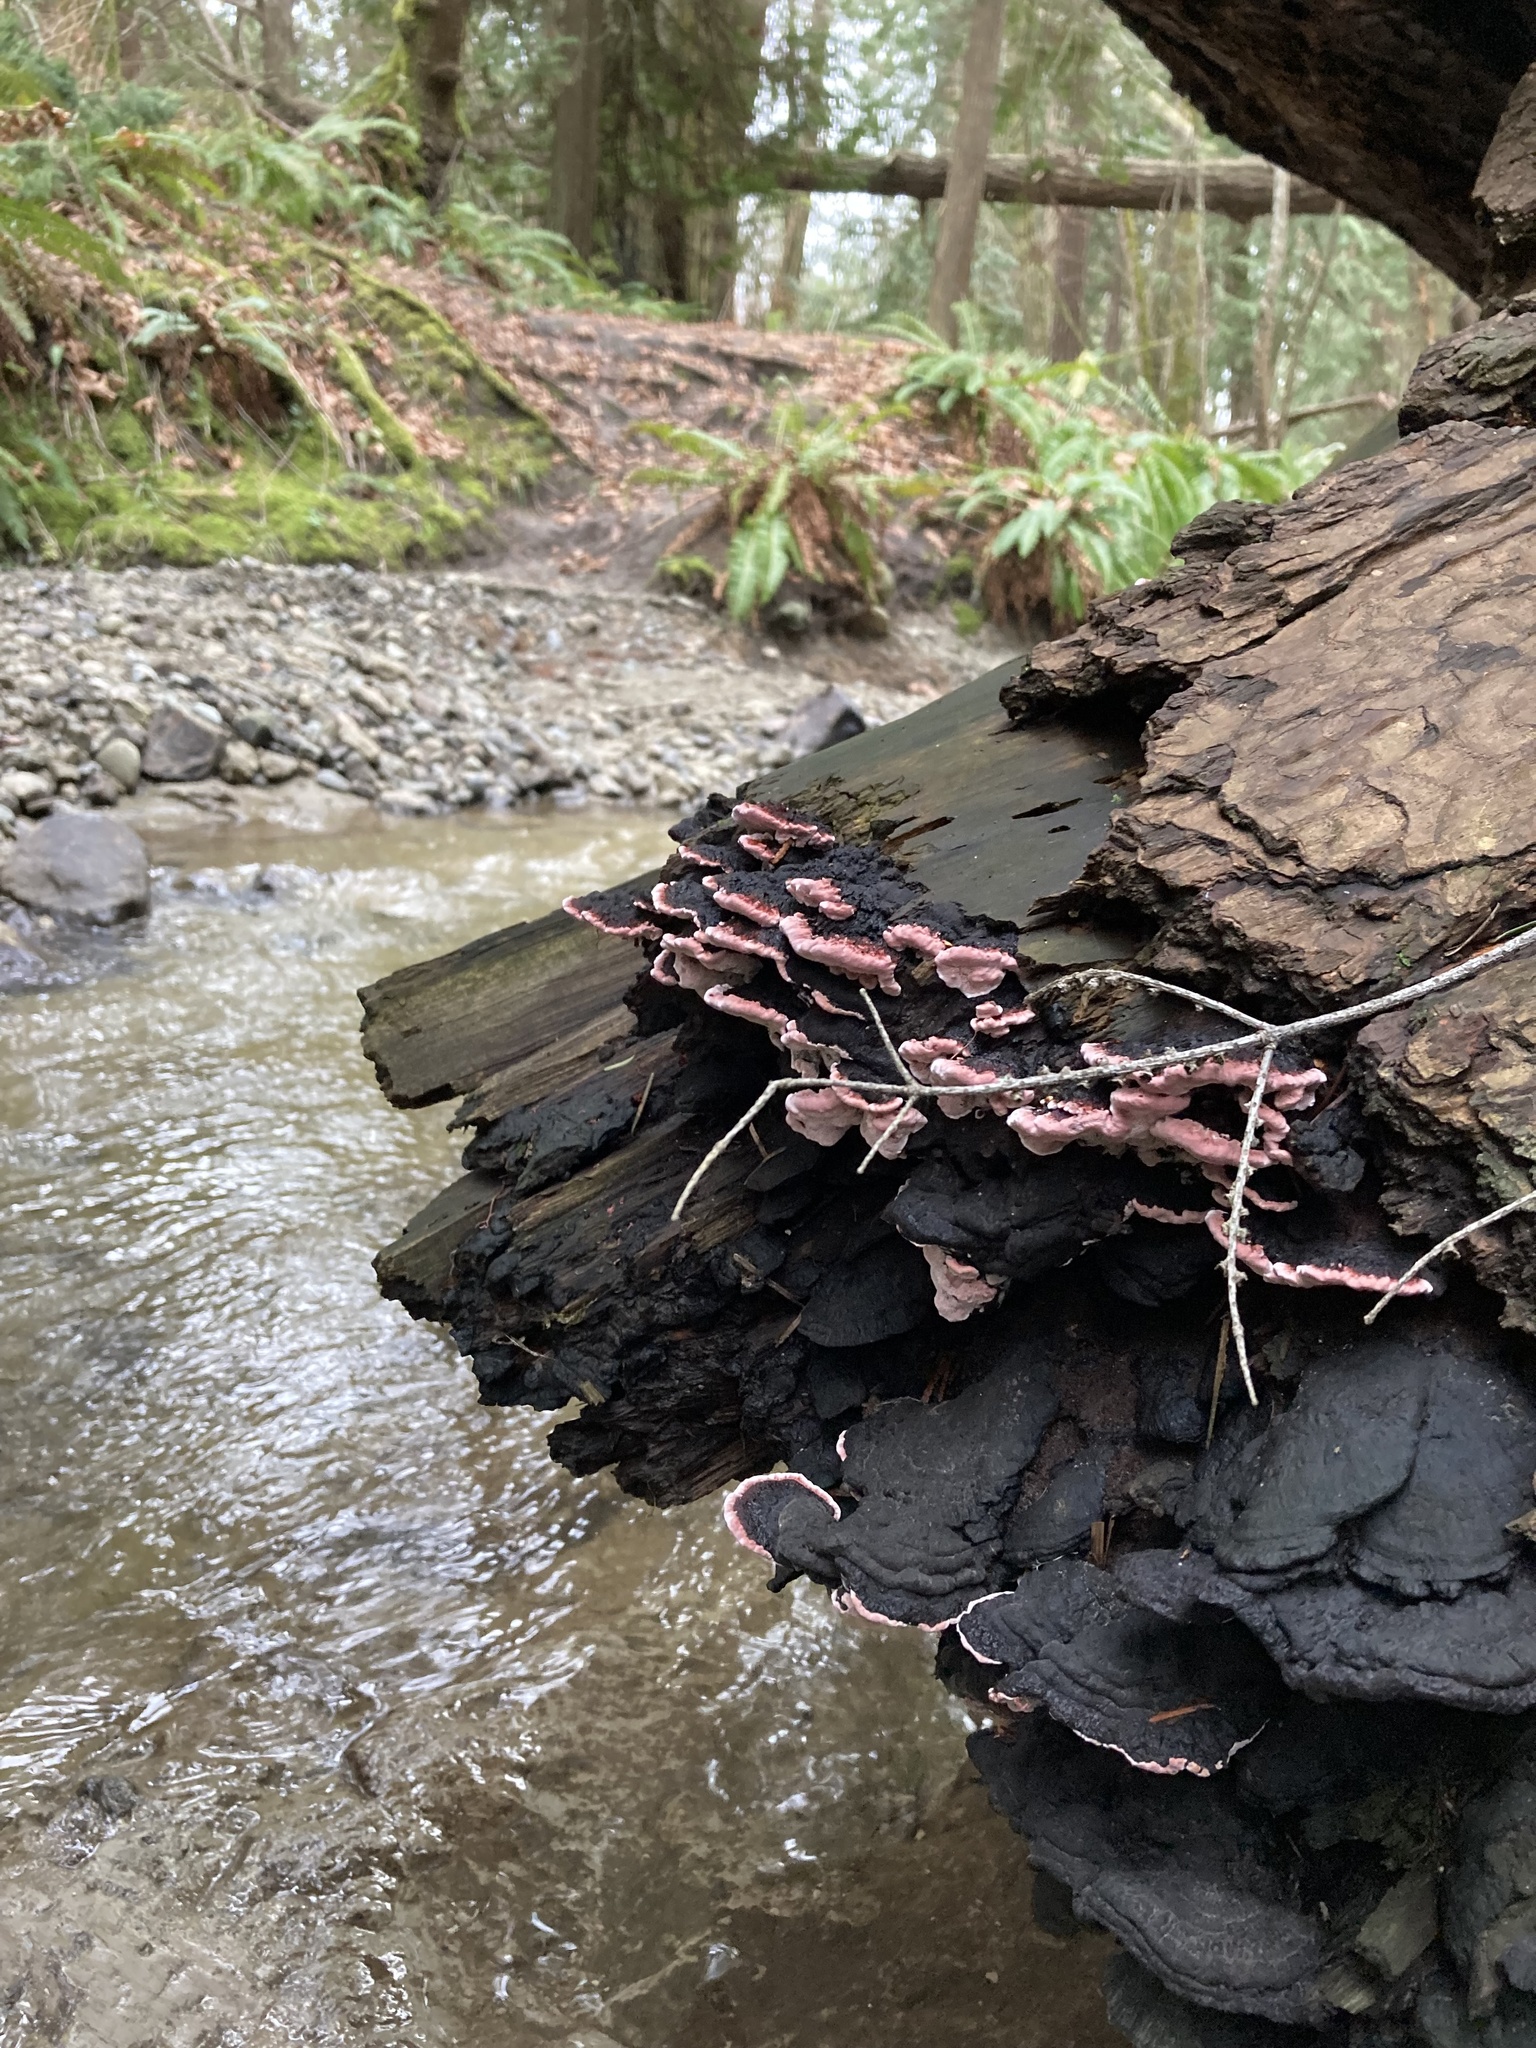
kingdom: Fungi
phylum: Basidiomycota
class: Agaricomycetes
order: Polyporales
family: Fomitopsidaceae
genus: Rhodofomes
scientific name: Rhodofomes cajanderi
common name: Rosy conk
